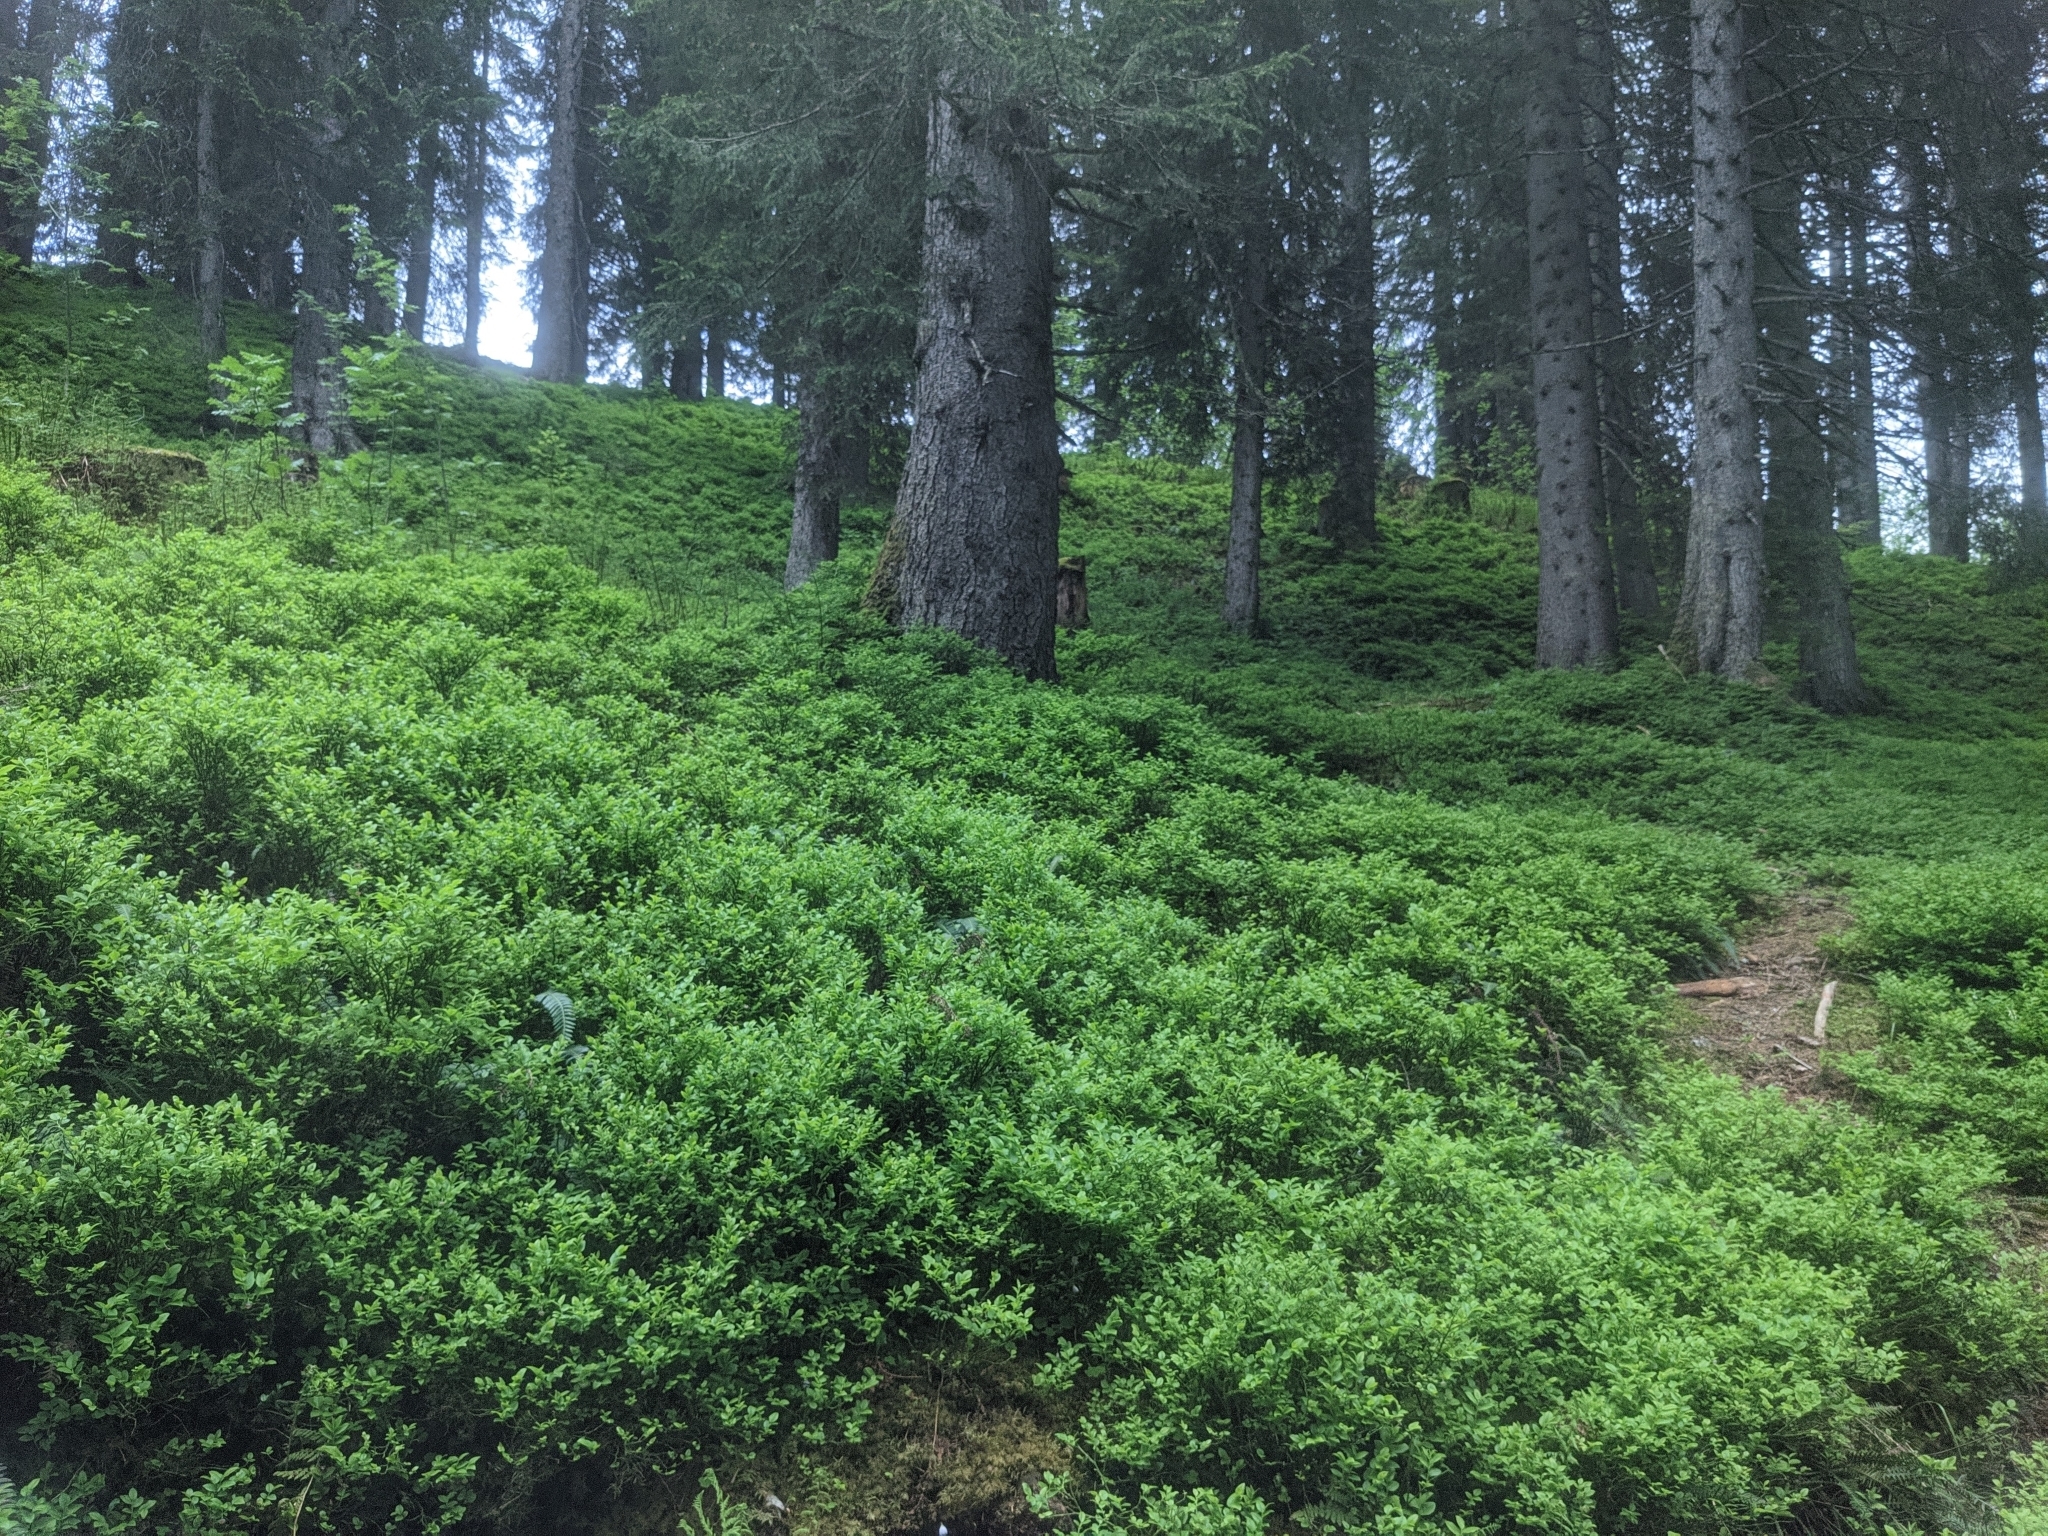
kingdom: Plantae
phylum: Tracheophyta
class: Magnoliopsida
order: Ericales
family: Ericaceae
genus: Vaccinium
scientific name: Vaccinium myrtillus
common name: Bilberry
